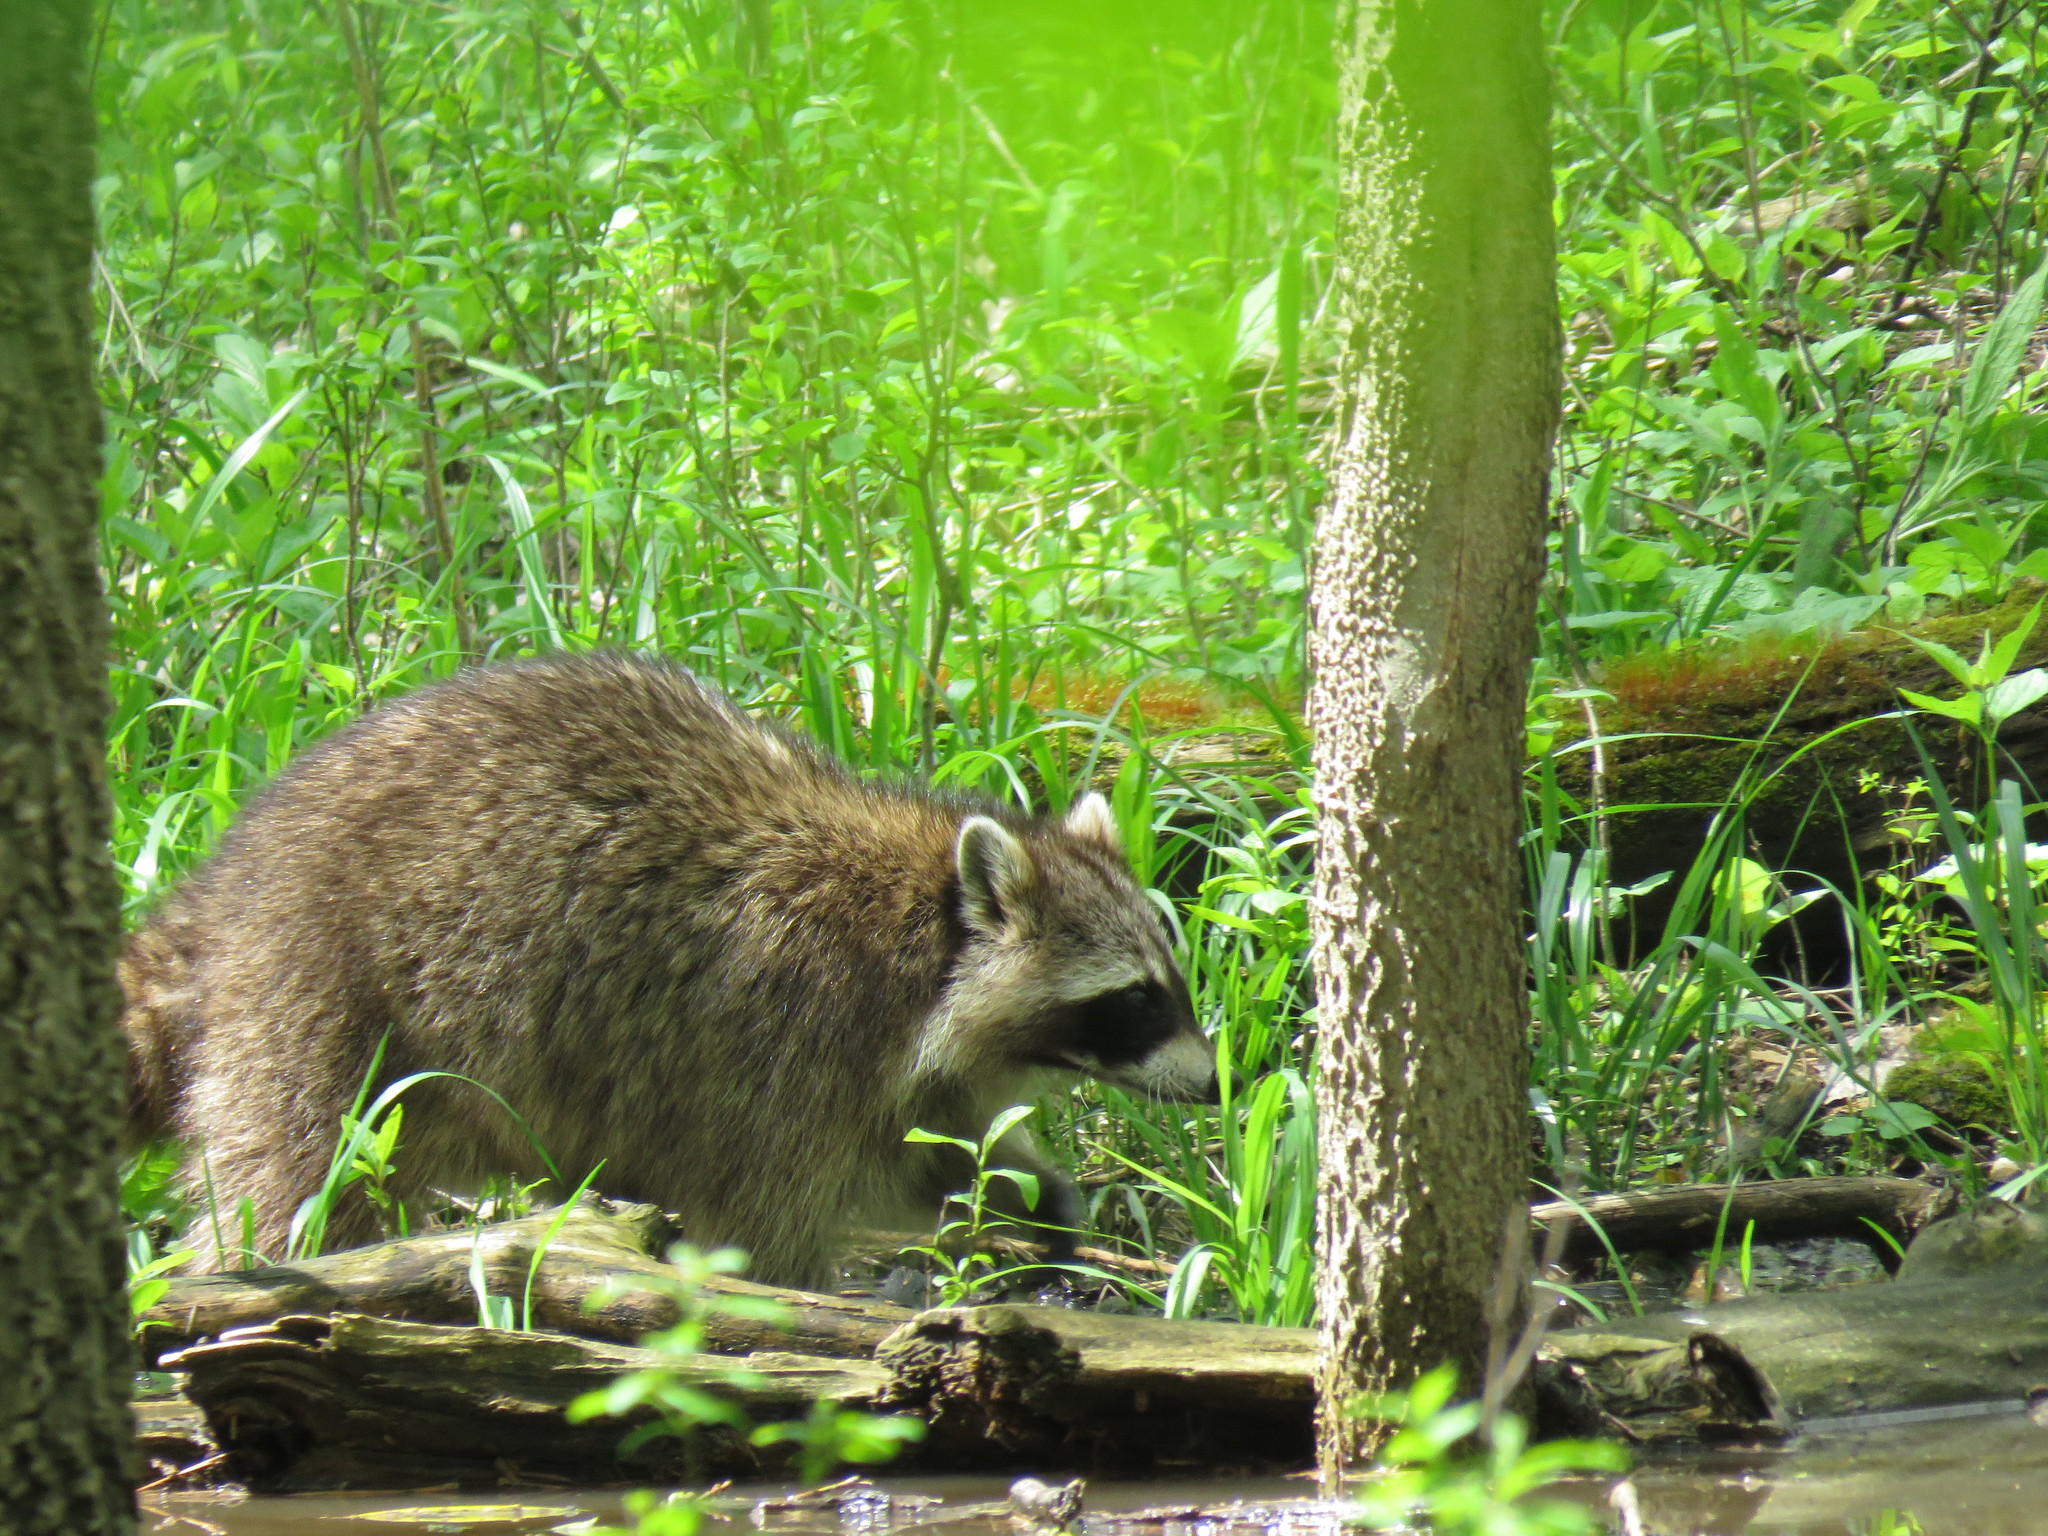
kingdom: Animalia
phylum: Chordata
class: Mammalia
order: Carnivora
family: Procyonidae
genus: Procyon
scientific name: Procyon lotor
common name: Raccoon
